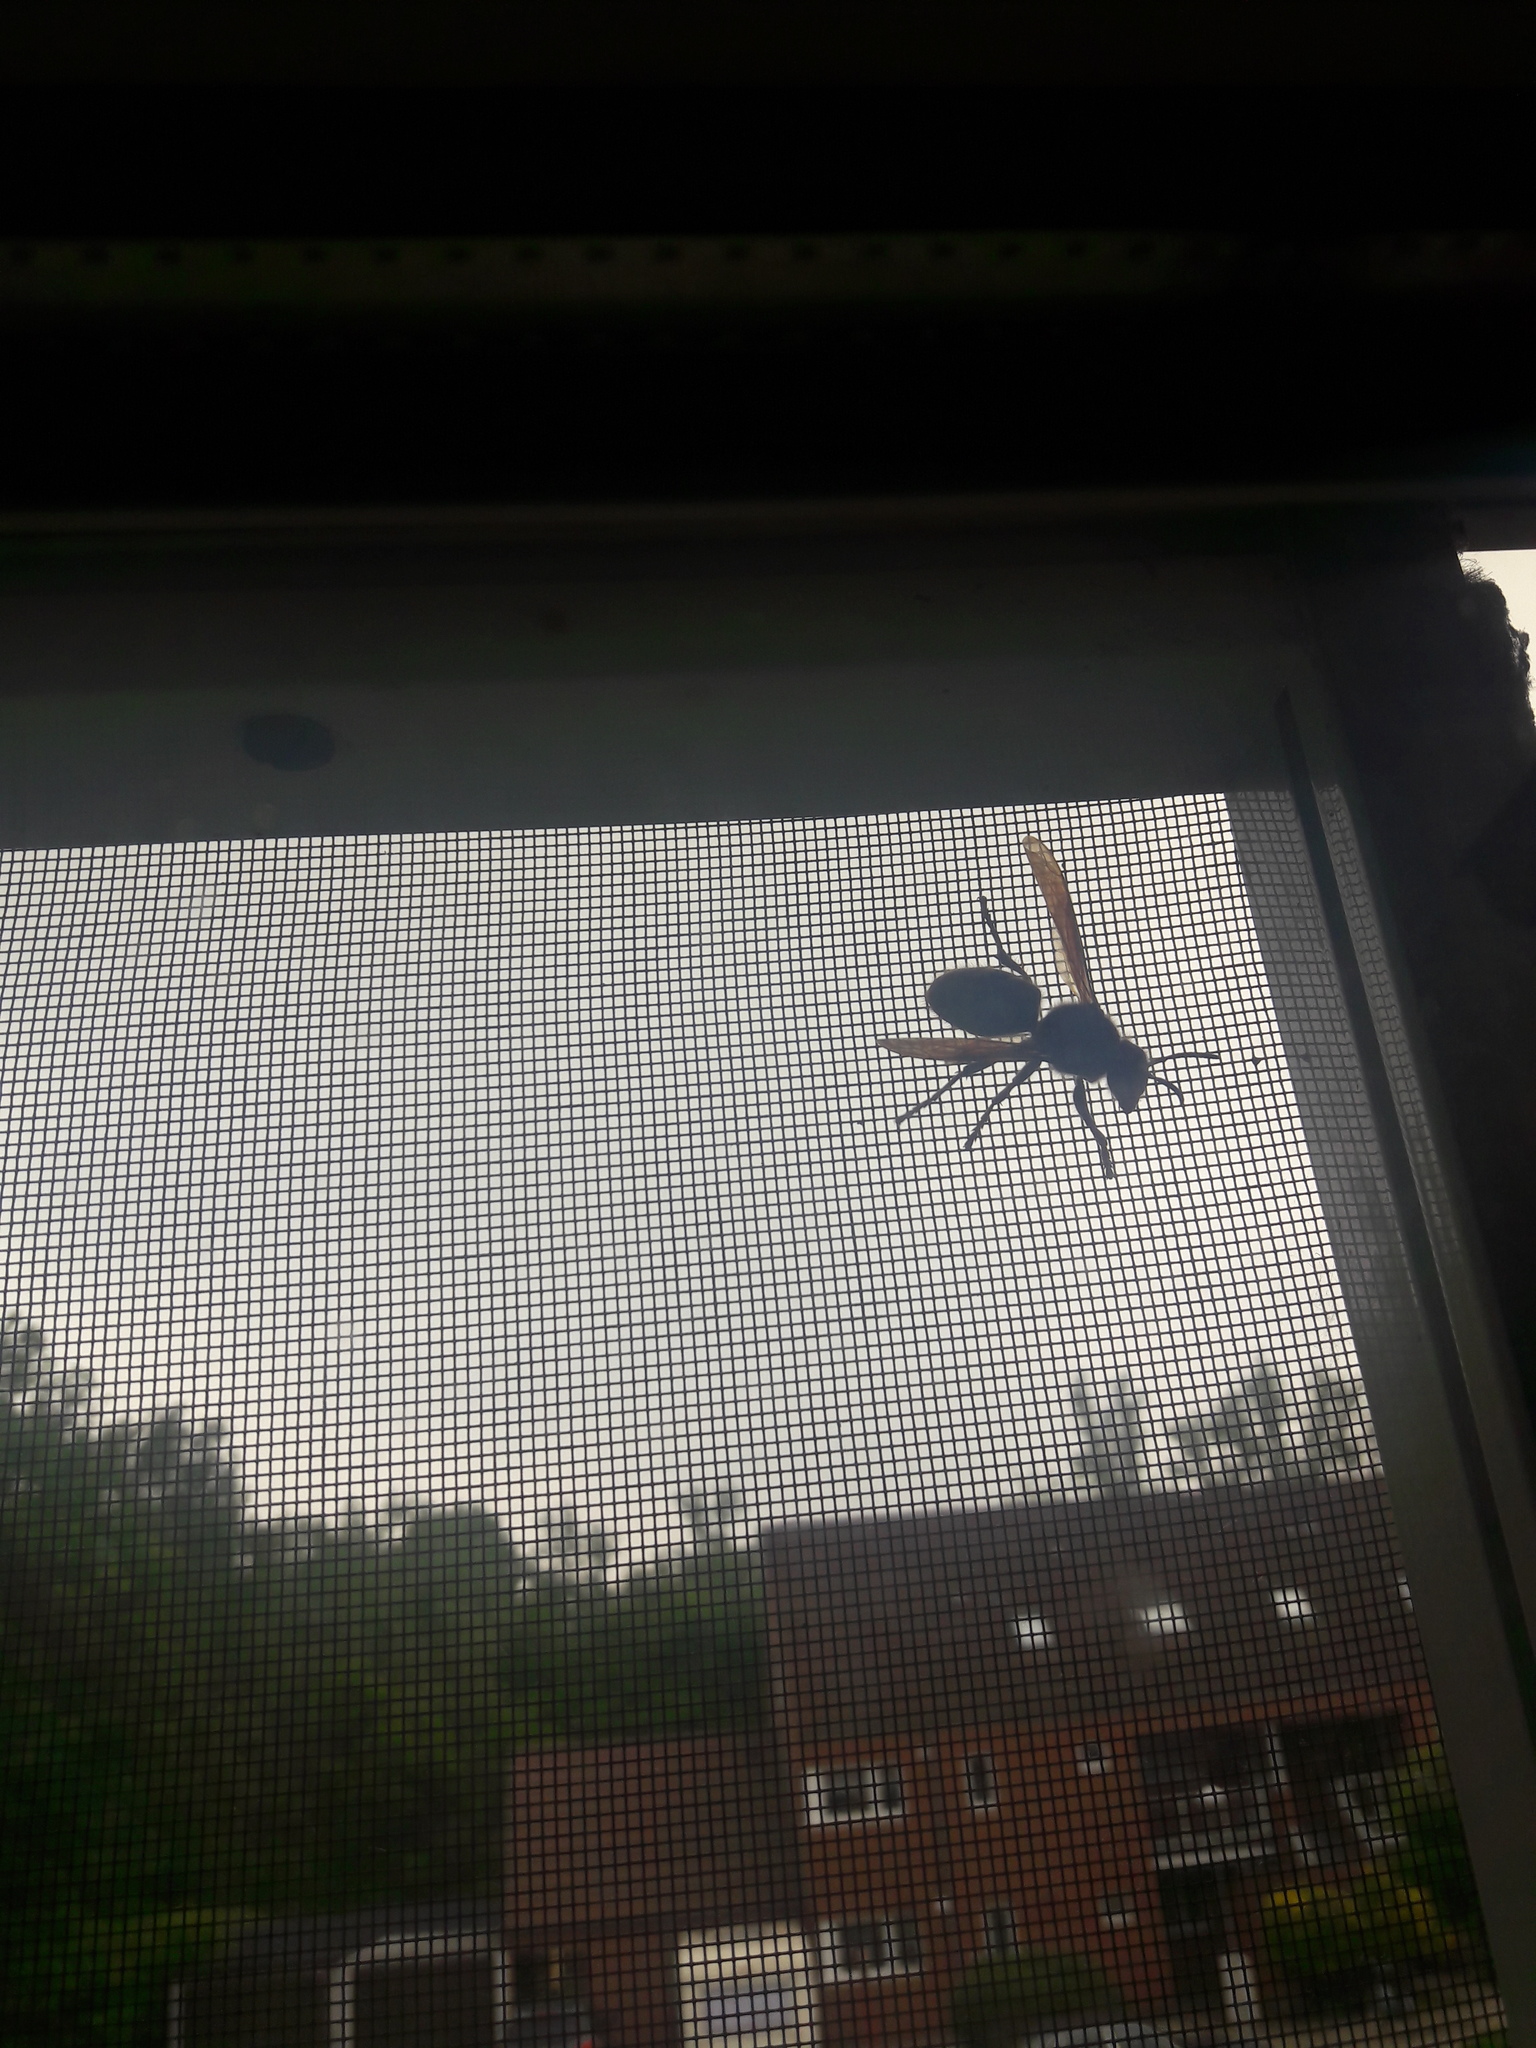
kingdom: Animalia
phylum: Arthropoda
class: Insecta
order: Hymenoptera
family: Vespidae
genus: Vespa
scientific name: Vespa crabro
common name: Hornet
